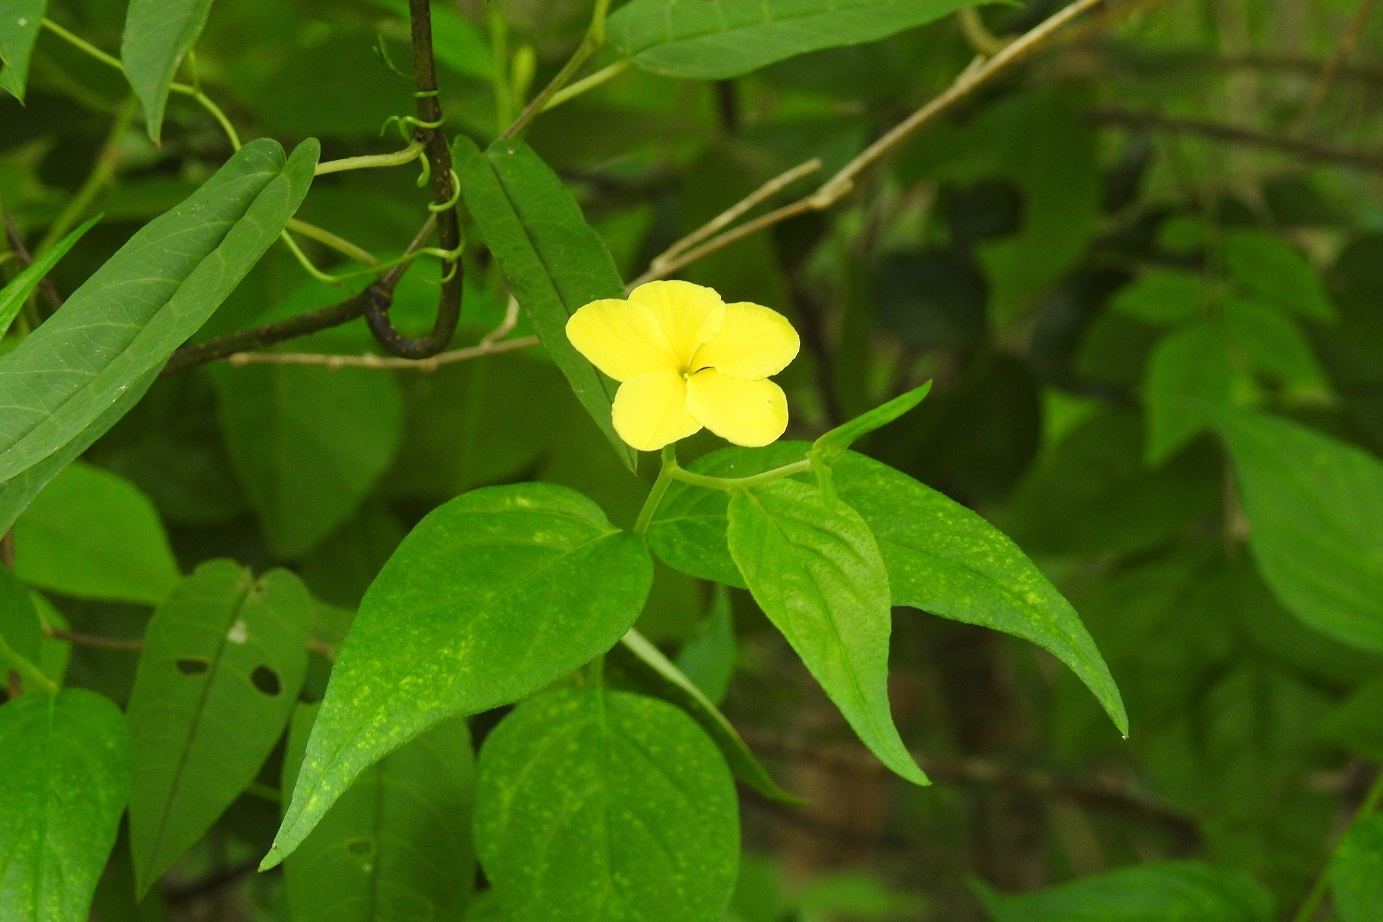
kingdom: Plantae
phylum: Tracheophyta
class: Magnoliopsida
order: Gentianales
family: Apocynaceae
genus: Haplophyton
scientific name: Haplophyton cimicidum
